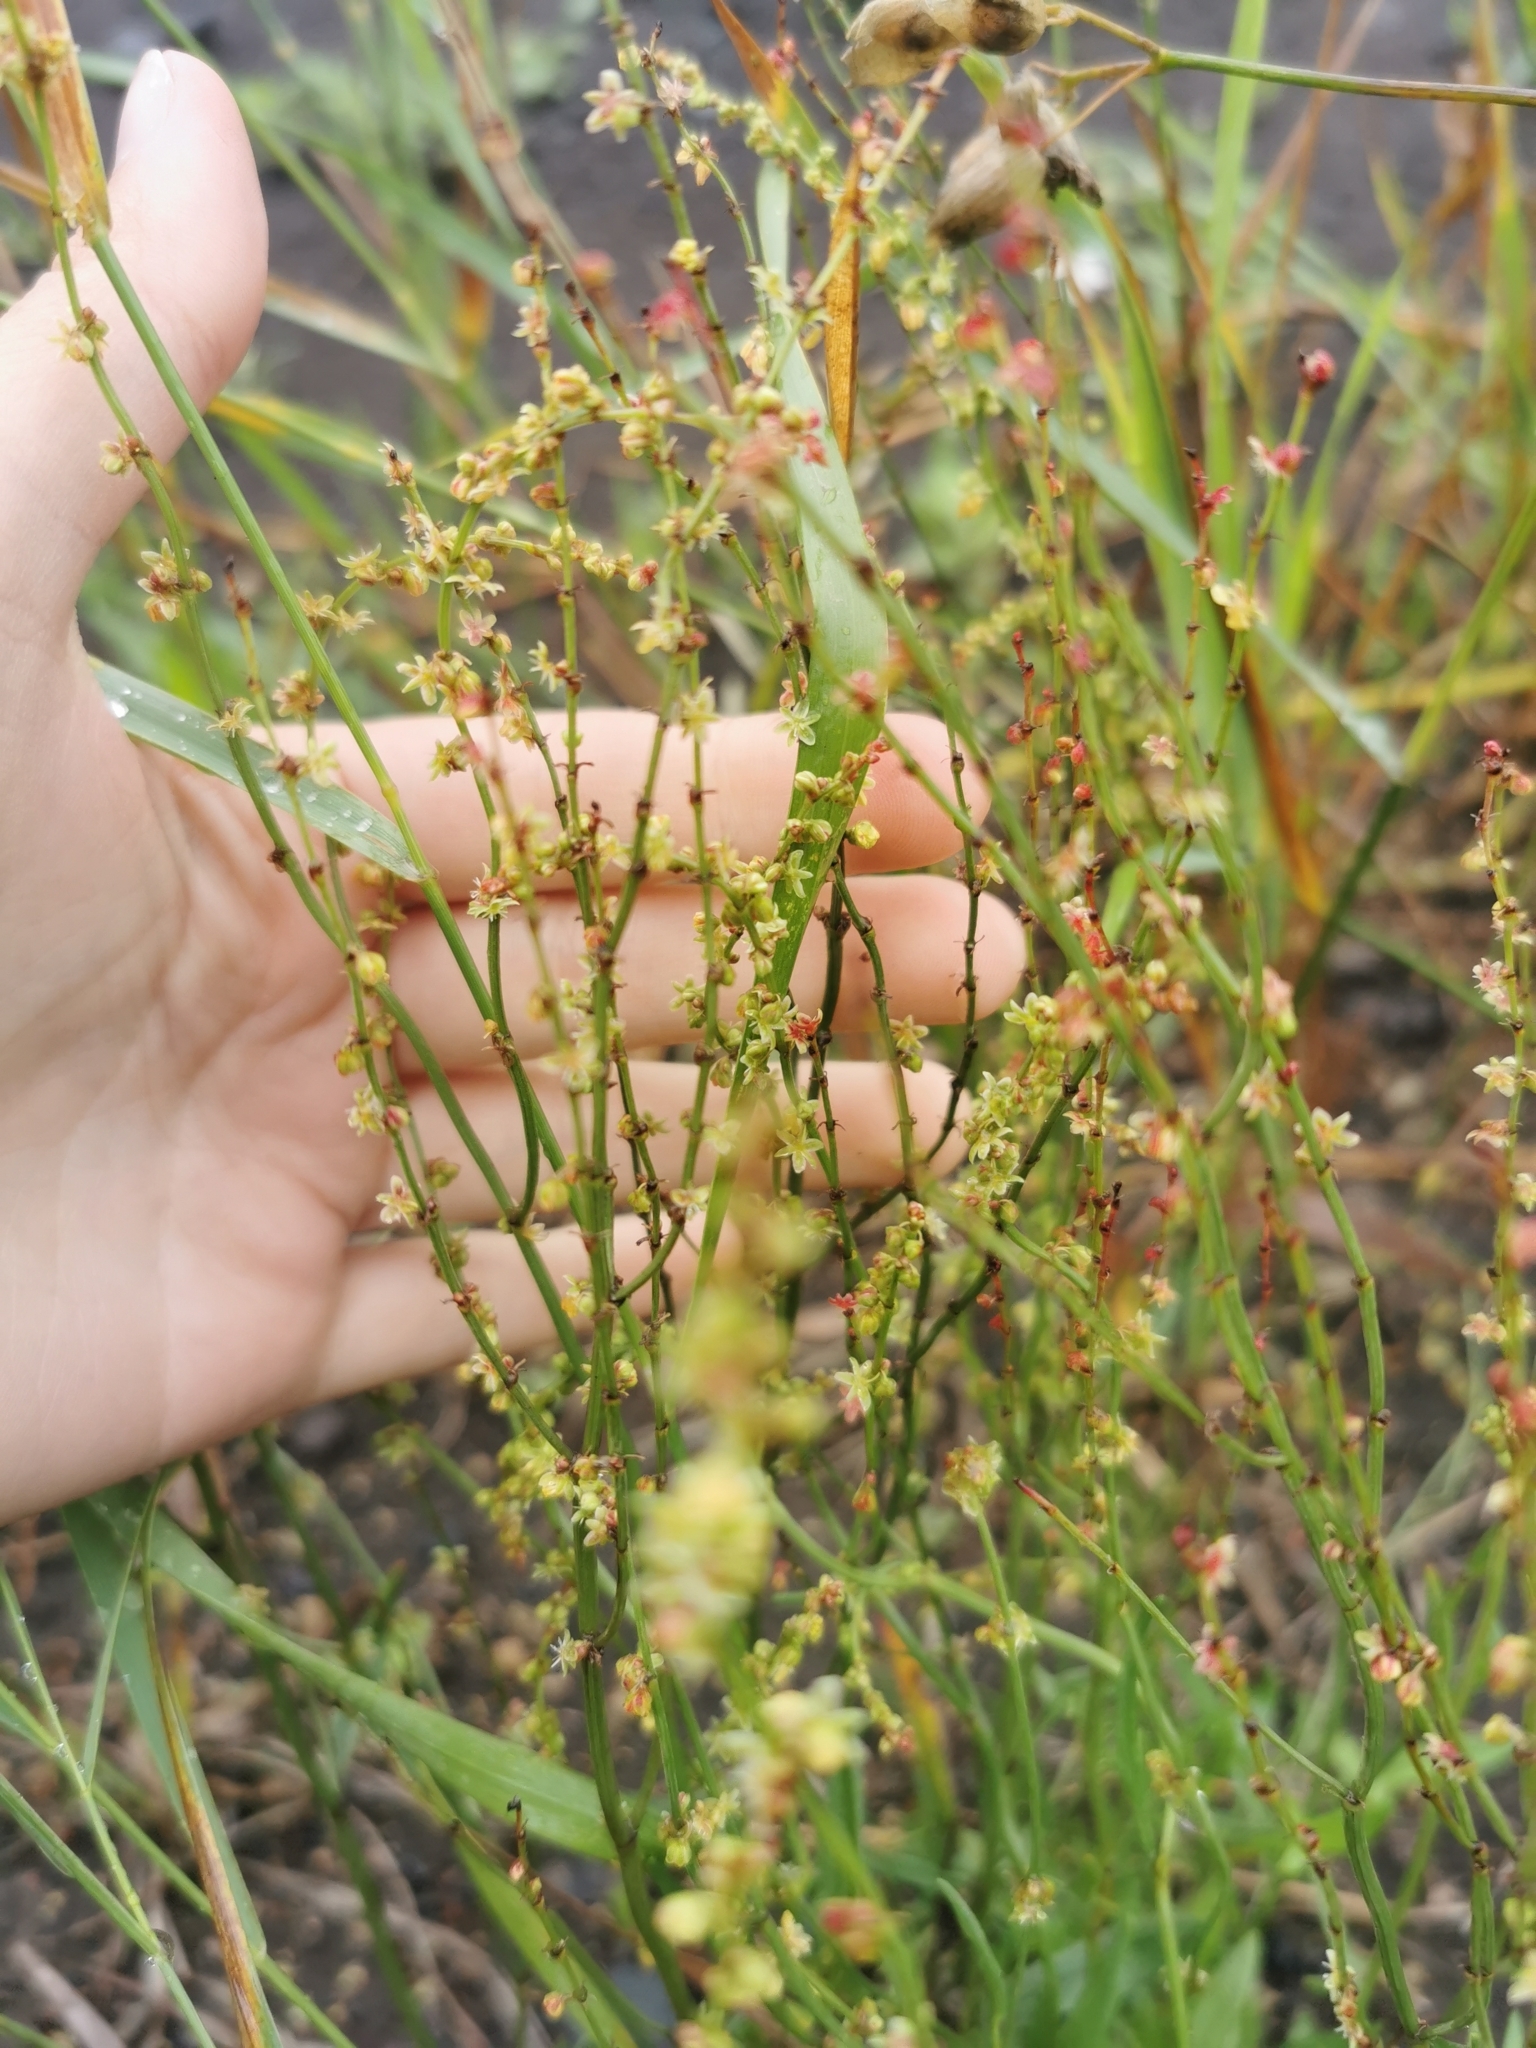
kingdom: Plantae
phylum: Tracheophyta
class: Magnoliopsida
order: Caryophyllales
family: Polygonaceae
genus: Rumex
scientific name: Rumex acetosella
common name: Common sheep sorrel
